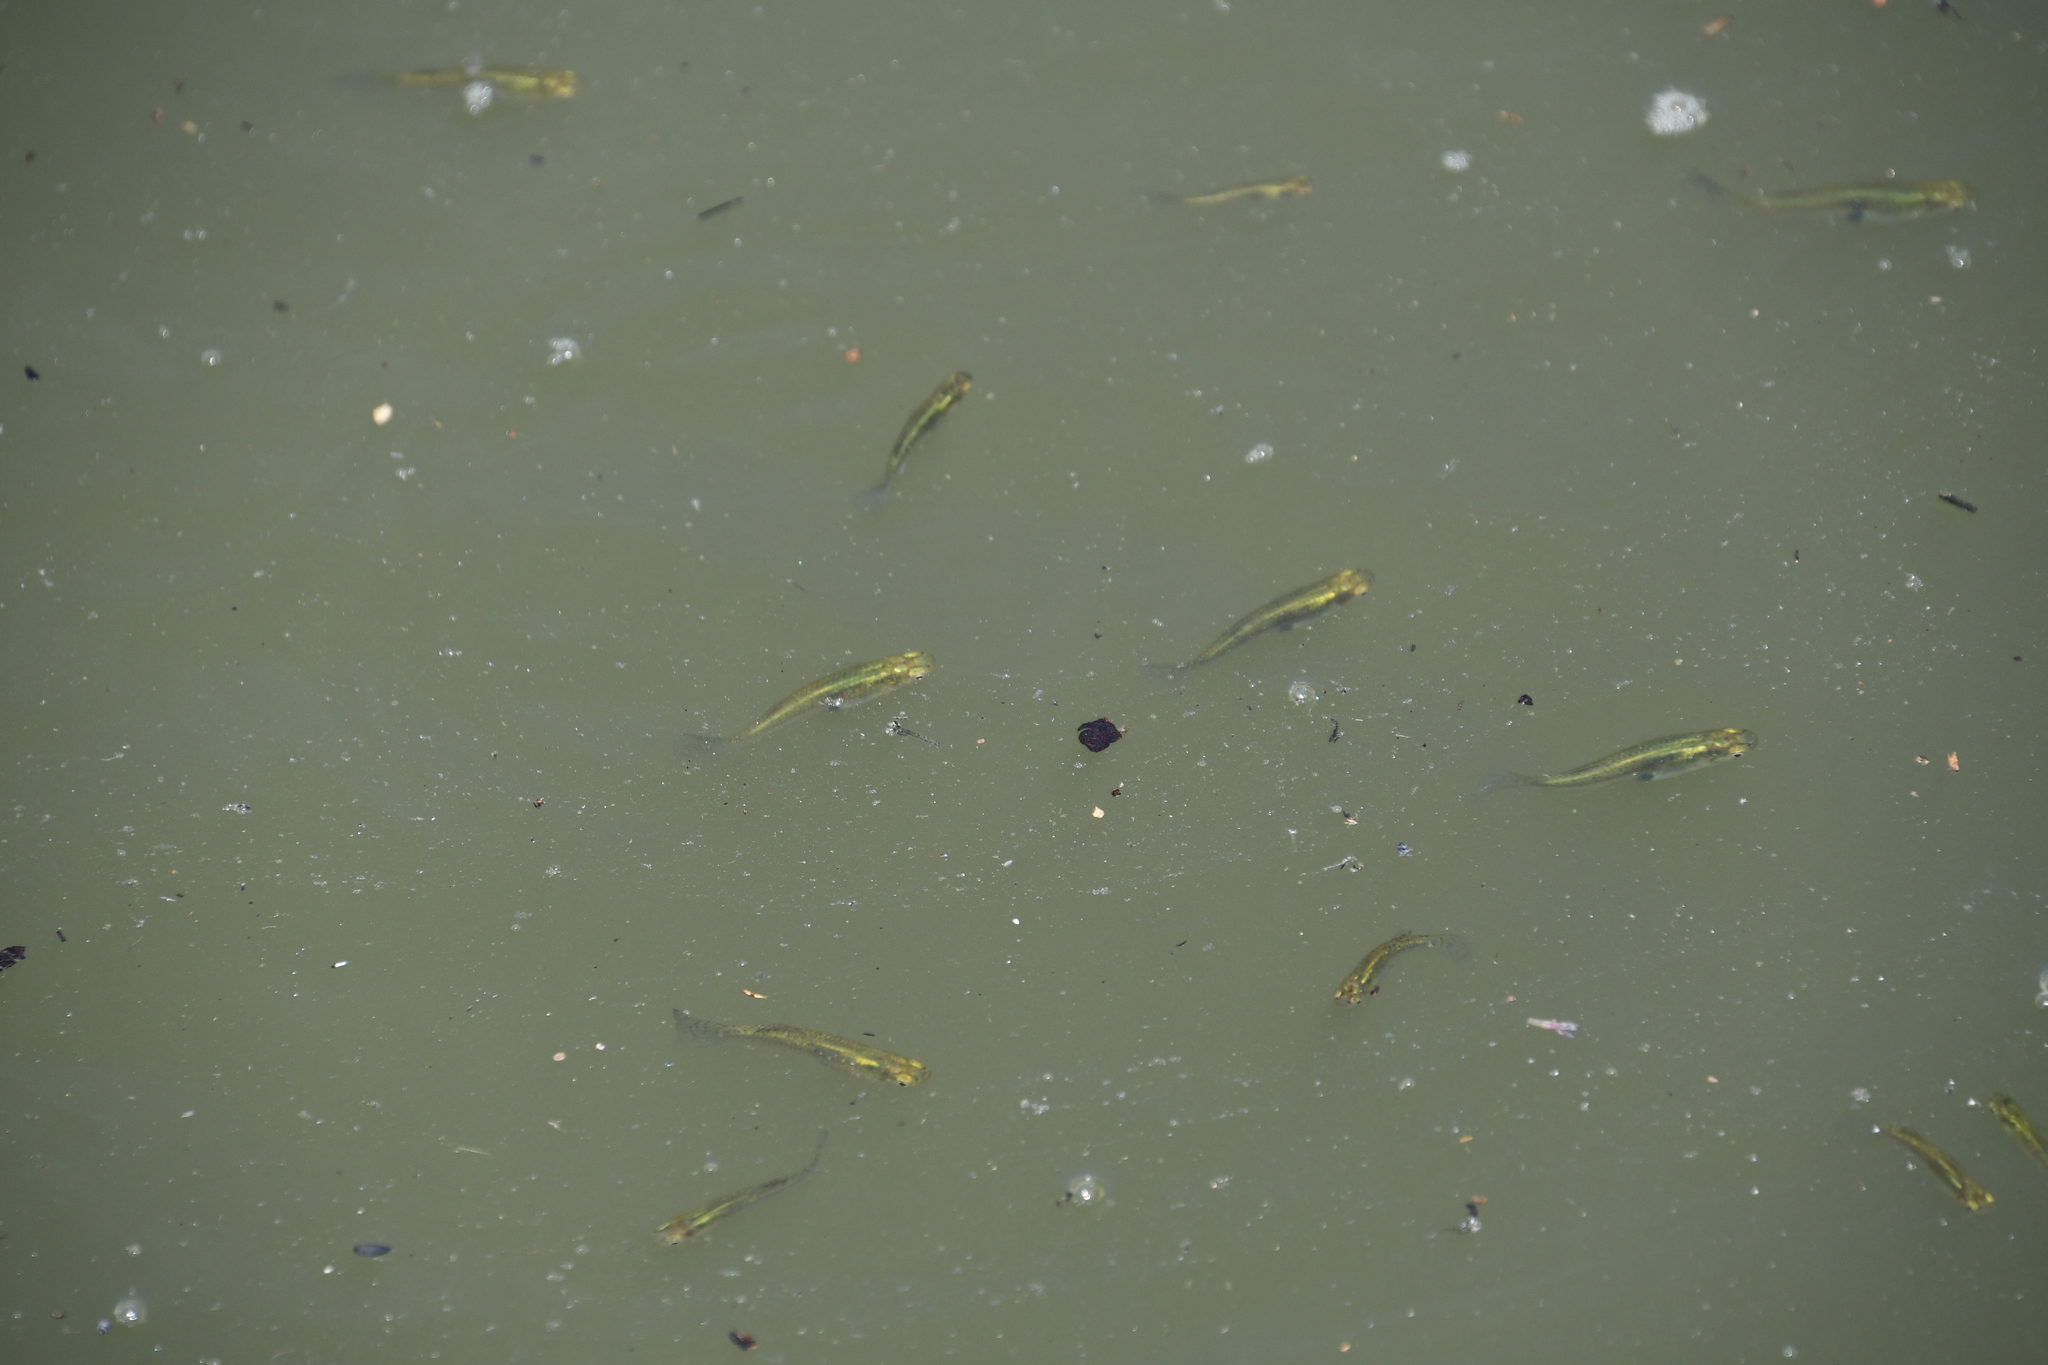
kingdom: Animalia
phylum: Chordata
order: Cyprinodontiformes
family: Poeciliidae
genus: Gambusia
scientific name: Gambusia holbrooki
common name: Eastern mosquitofish
